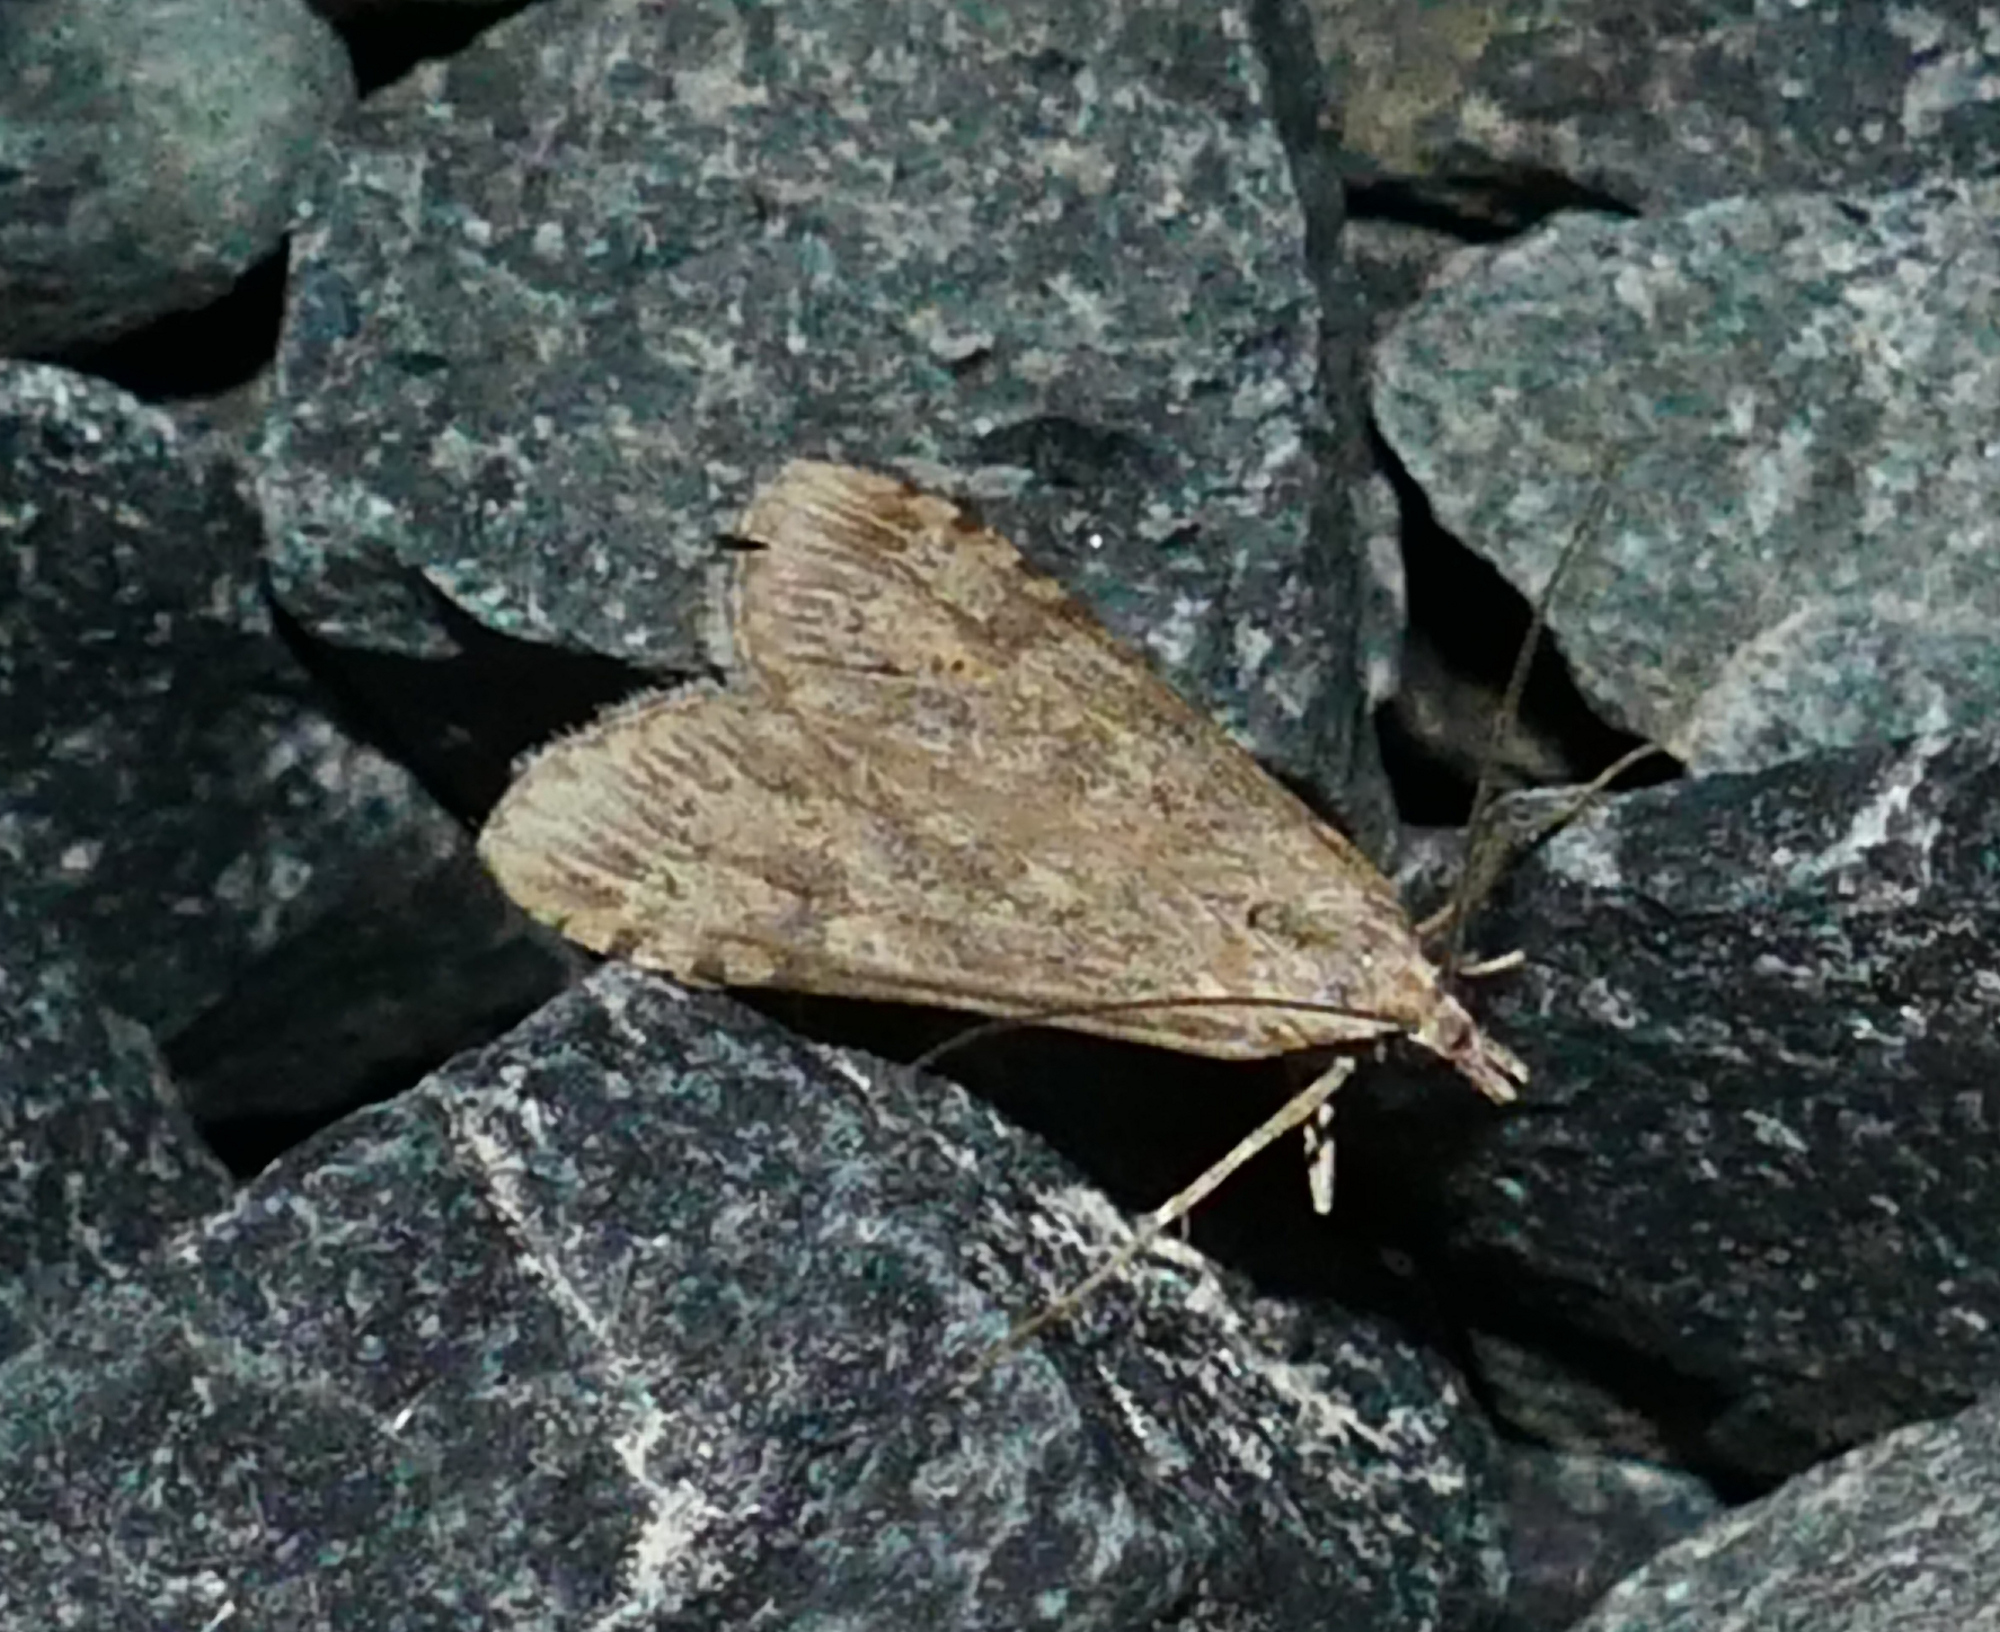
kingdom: Animalia
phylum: Arthropoda
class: Insecta
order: Lepidoptera
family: Crambidae
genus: Nomophila
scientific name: Nomophila nearctica
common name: American rush veneer
